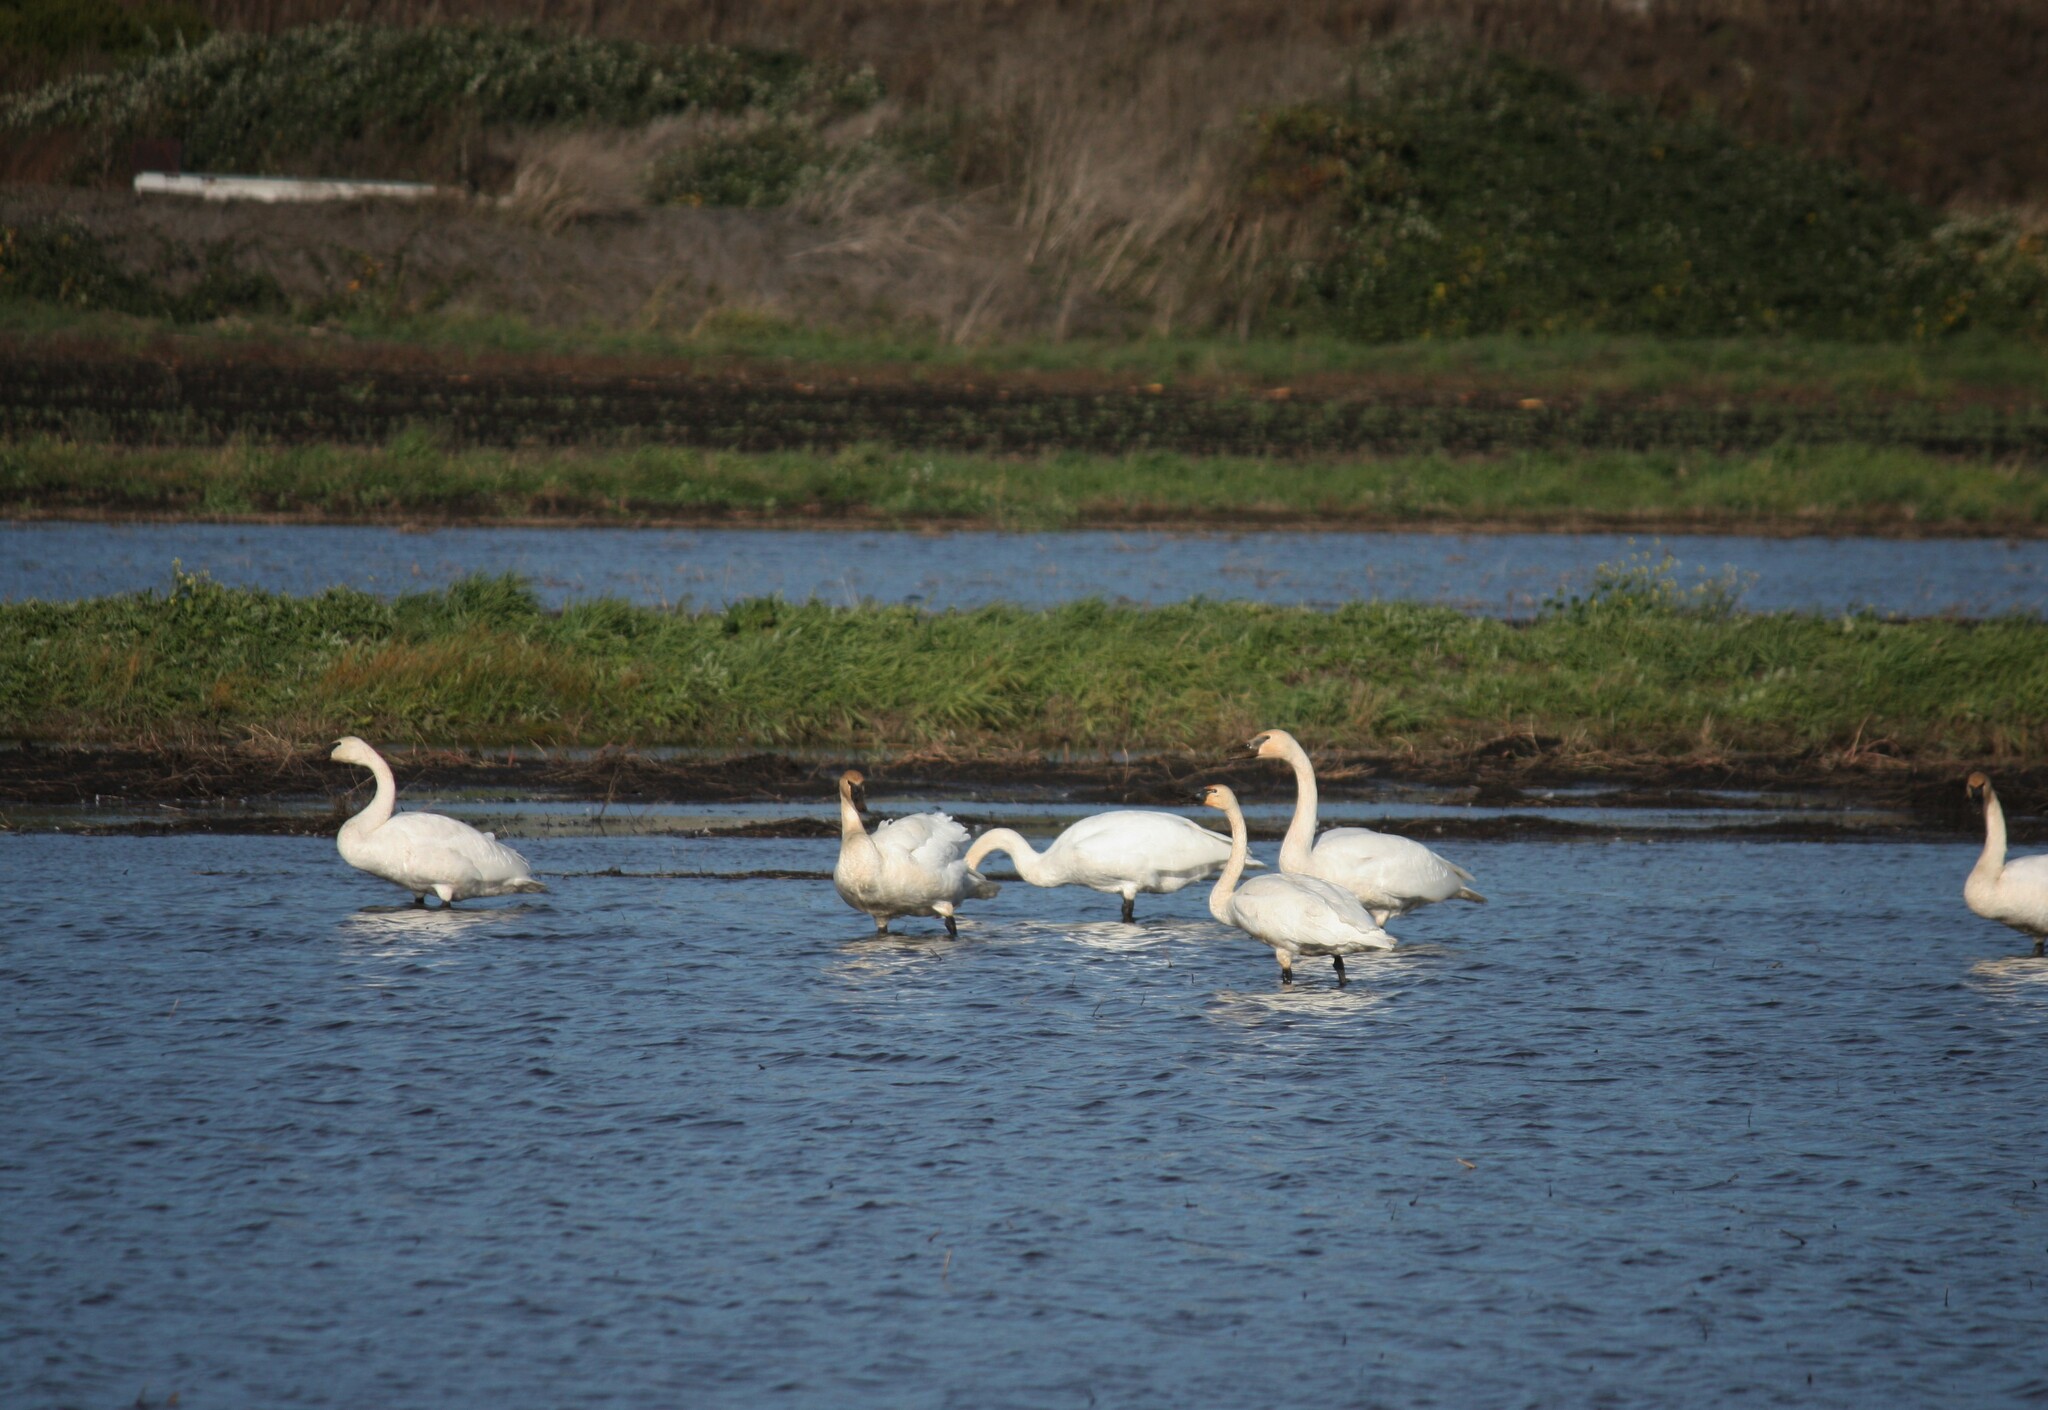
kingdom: Animalia
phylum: Chordata
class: Aves
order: Anseriformes
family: Anatidae
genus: Cygnus
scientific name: Cygnus buccinator
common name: Trumpeter swan
